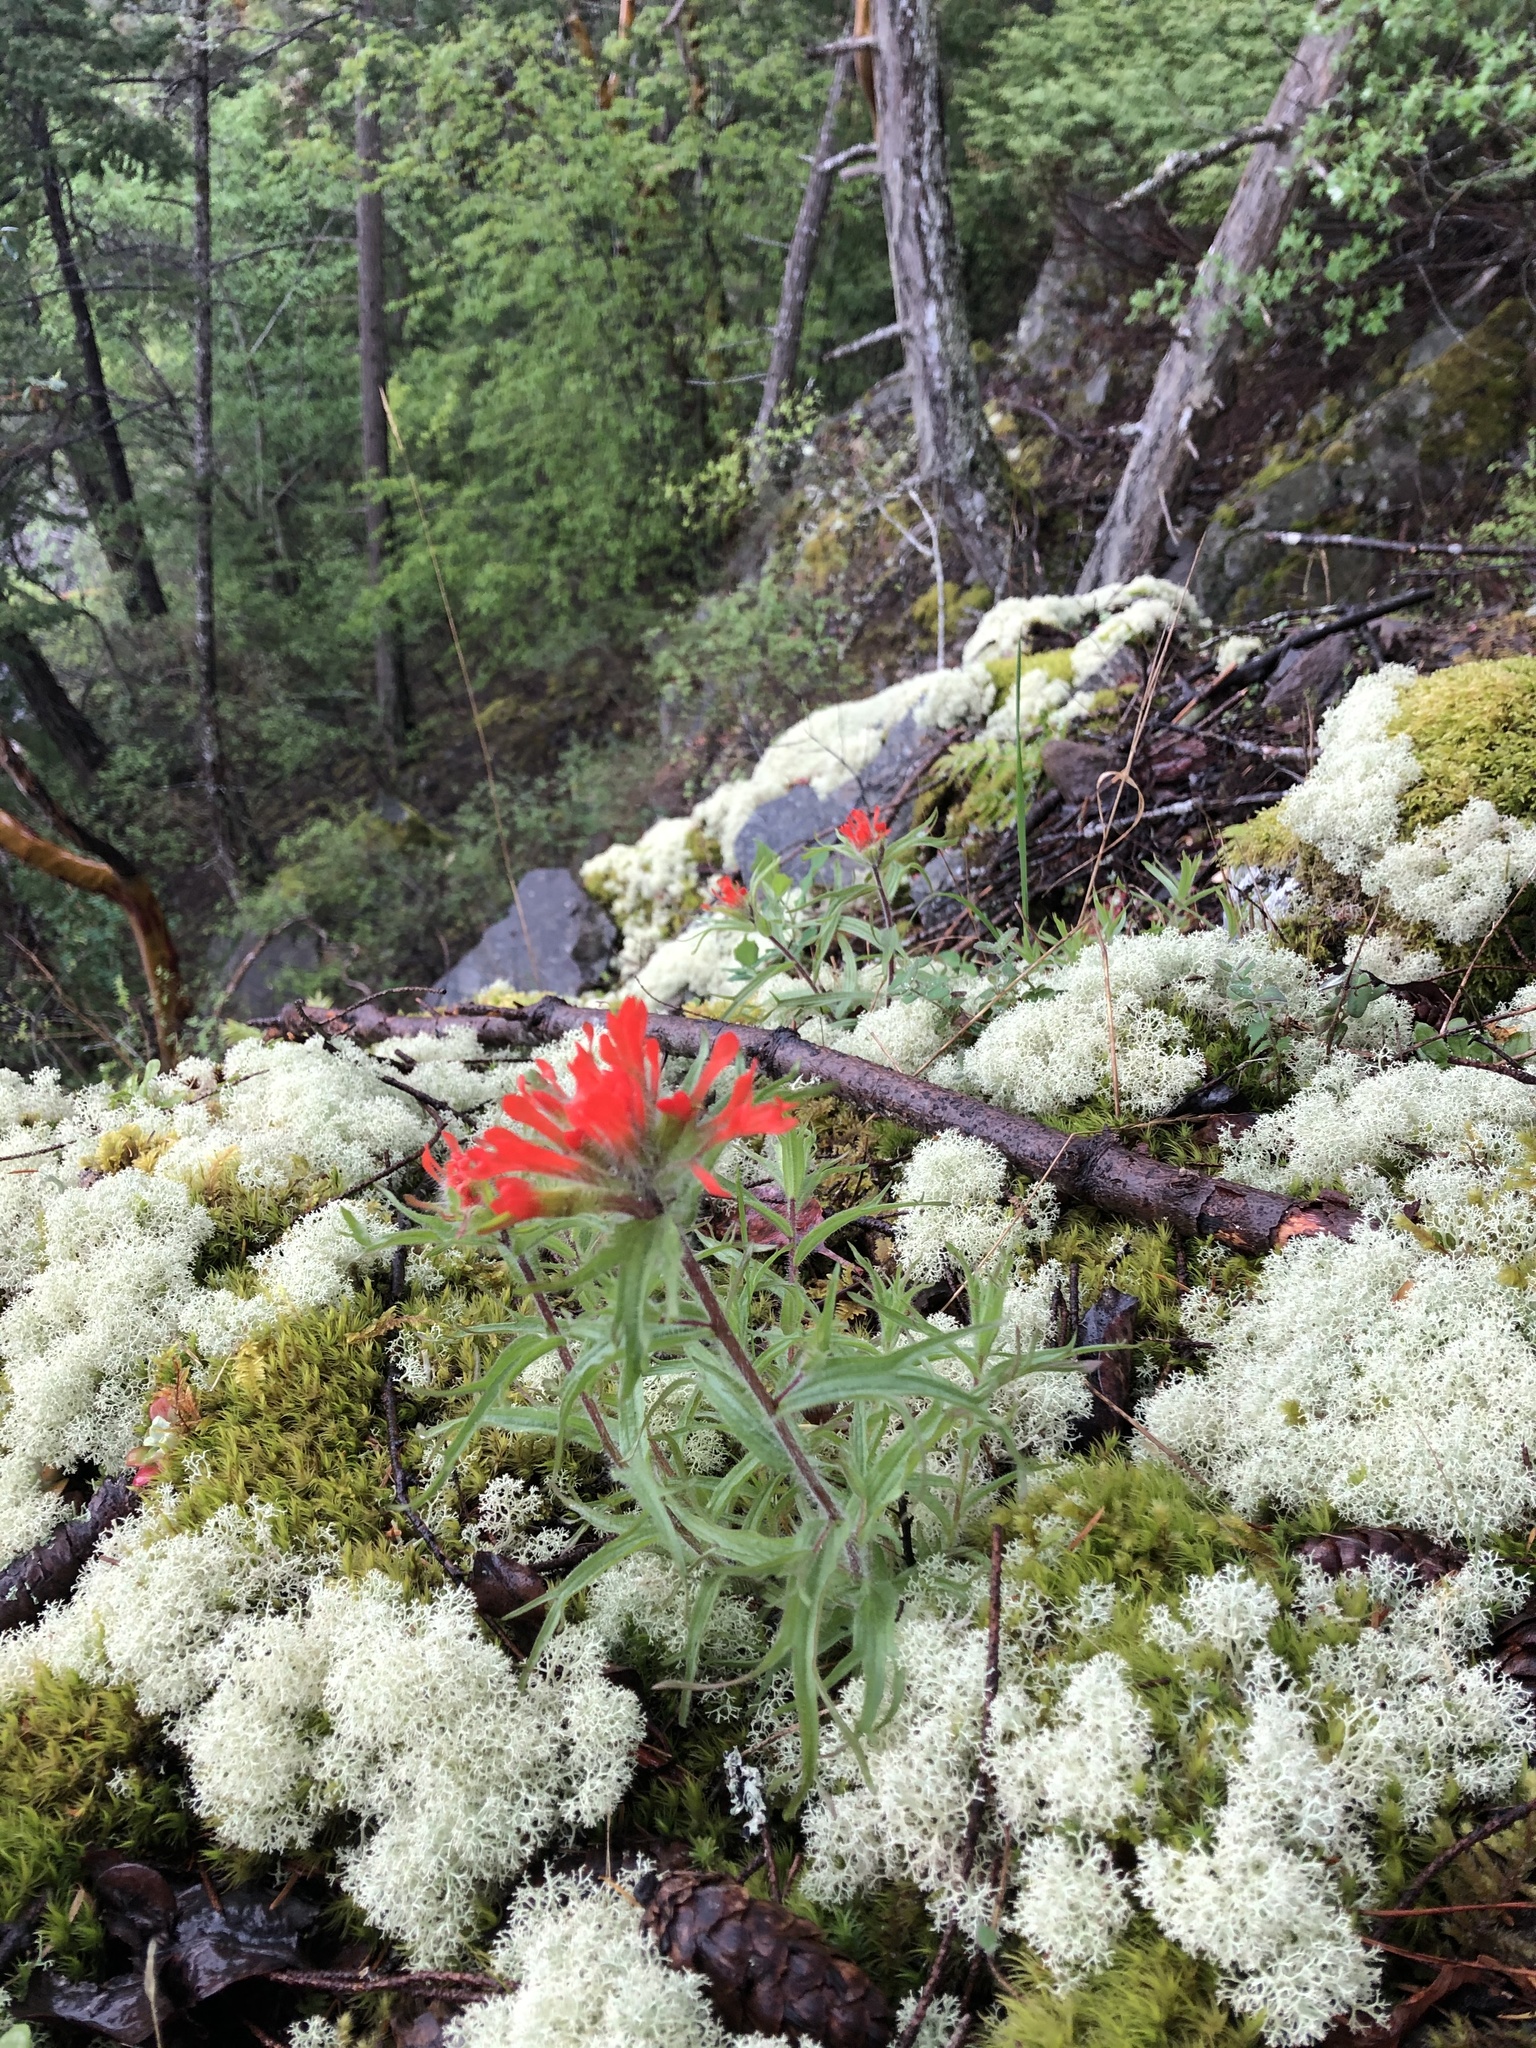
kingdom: Plantae
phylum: Tracheophyta
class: Magnoliopsida
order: Lamiales
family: Orobanchaceae
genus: Castilleja
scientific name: Castilleja hispida
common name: Bristly paintbrush
